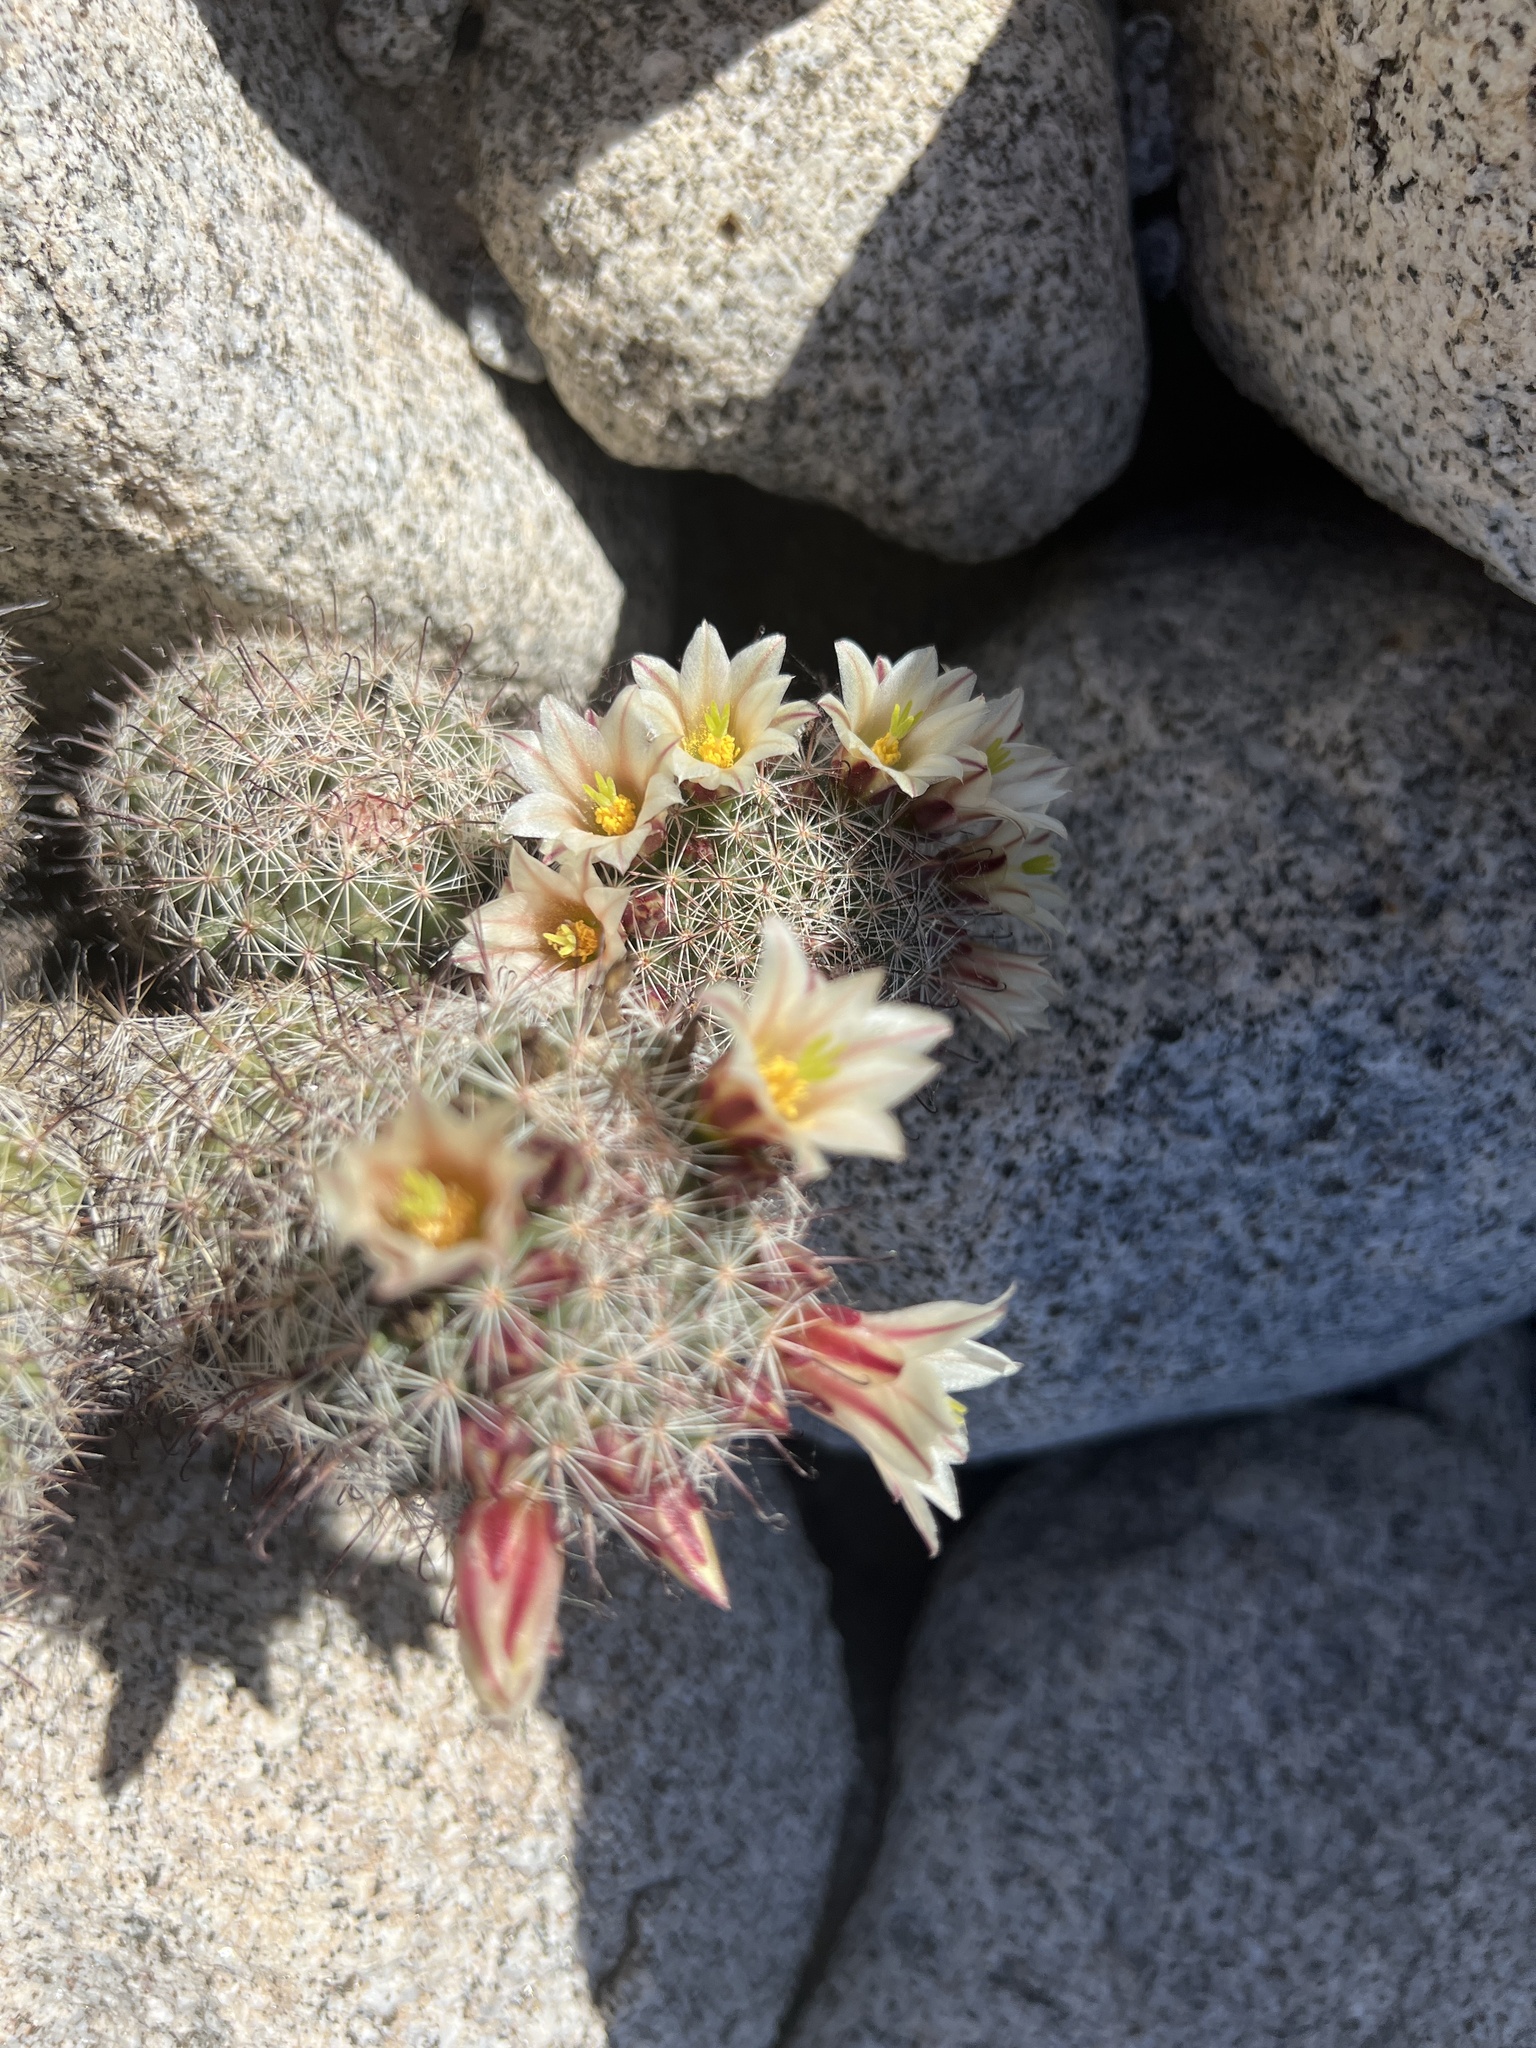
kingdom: Plantae
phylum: Tracheophyta
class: Magnoliopsida
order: Caryophyllales
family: Cactaceae
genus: Cochemiea
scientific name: Cochemiea dioica
